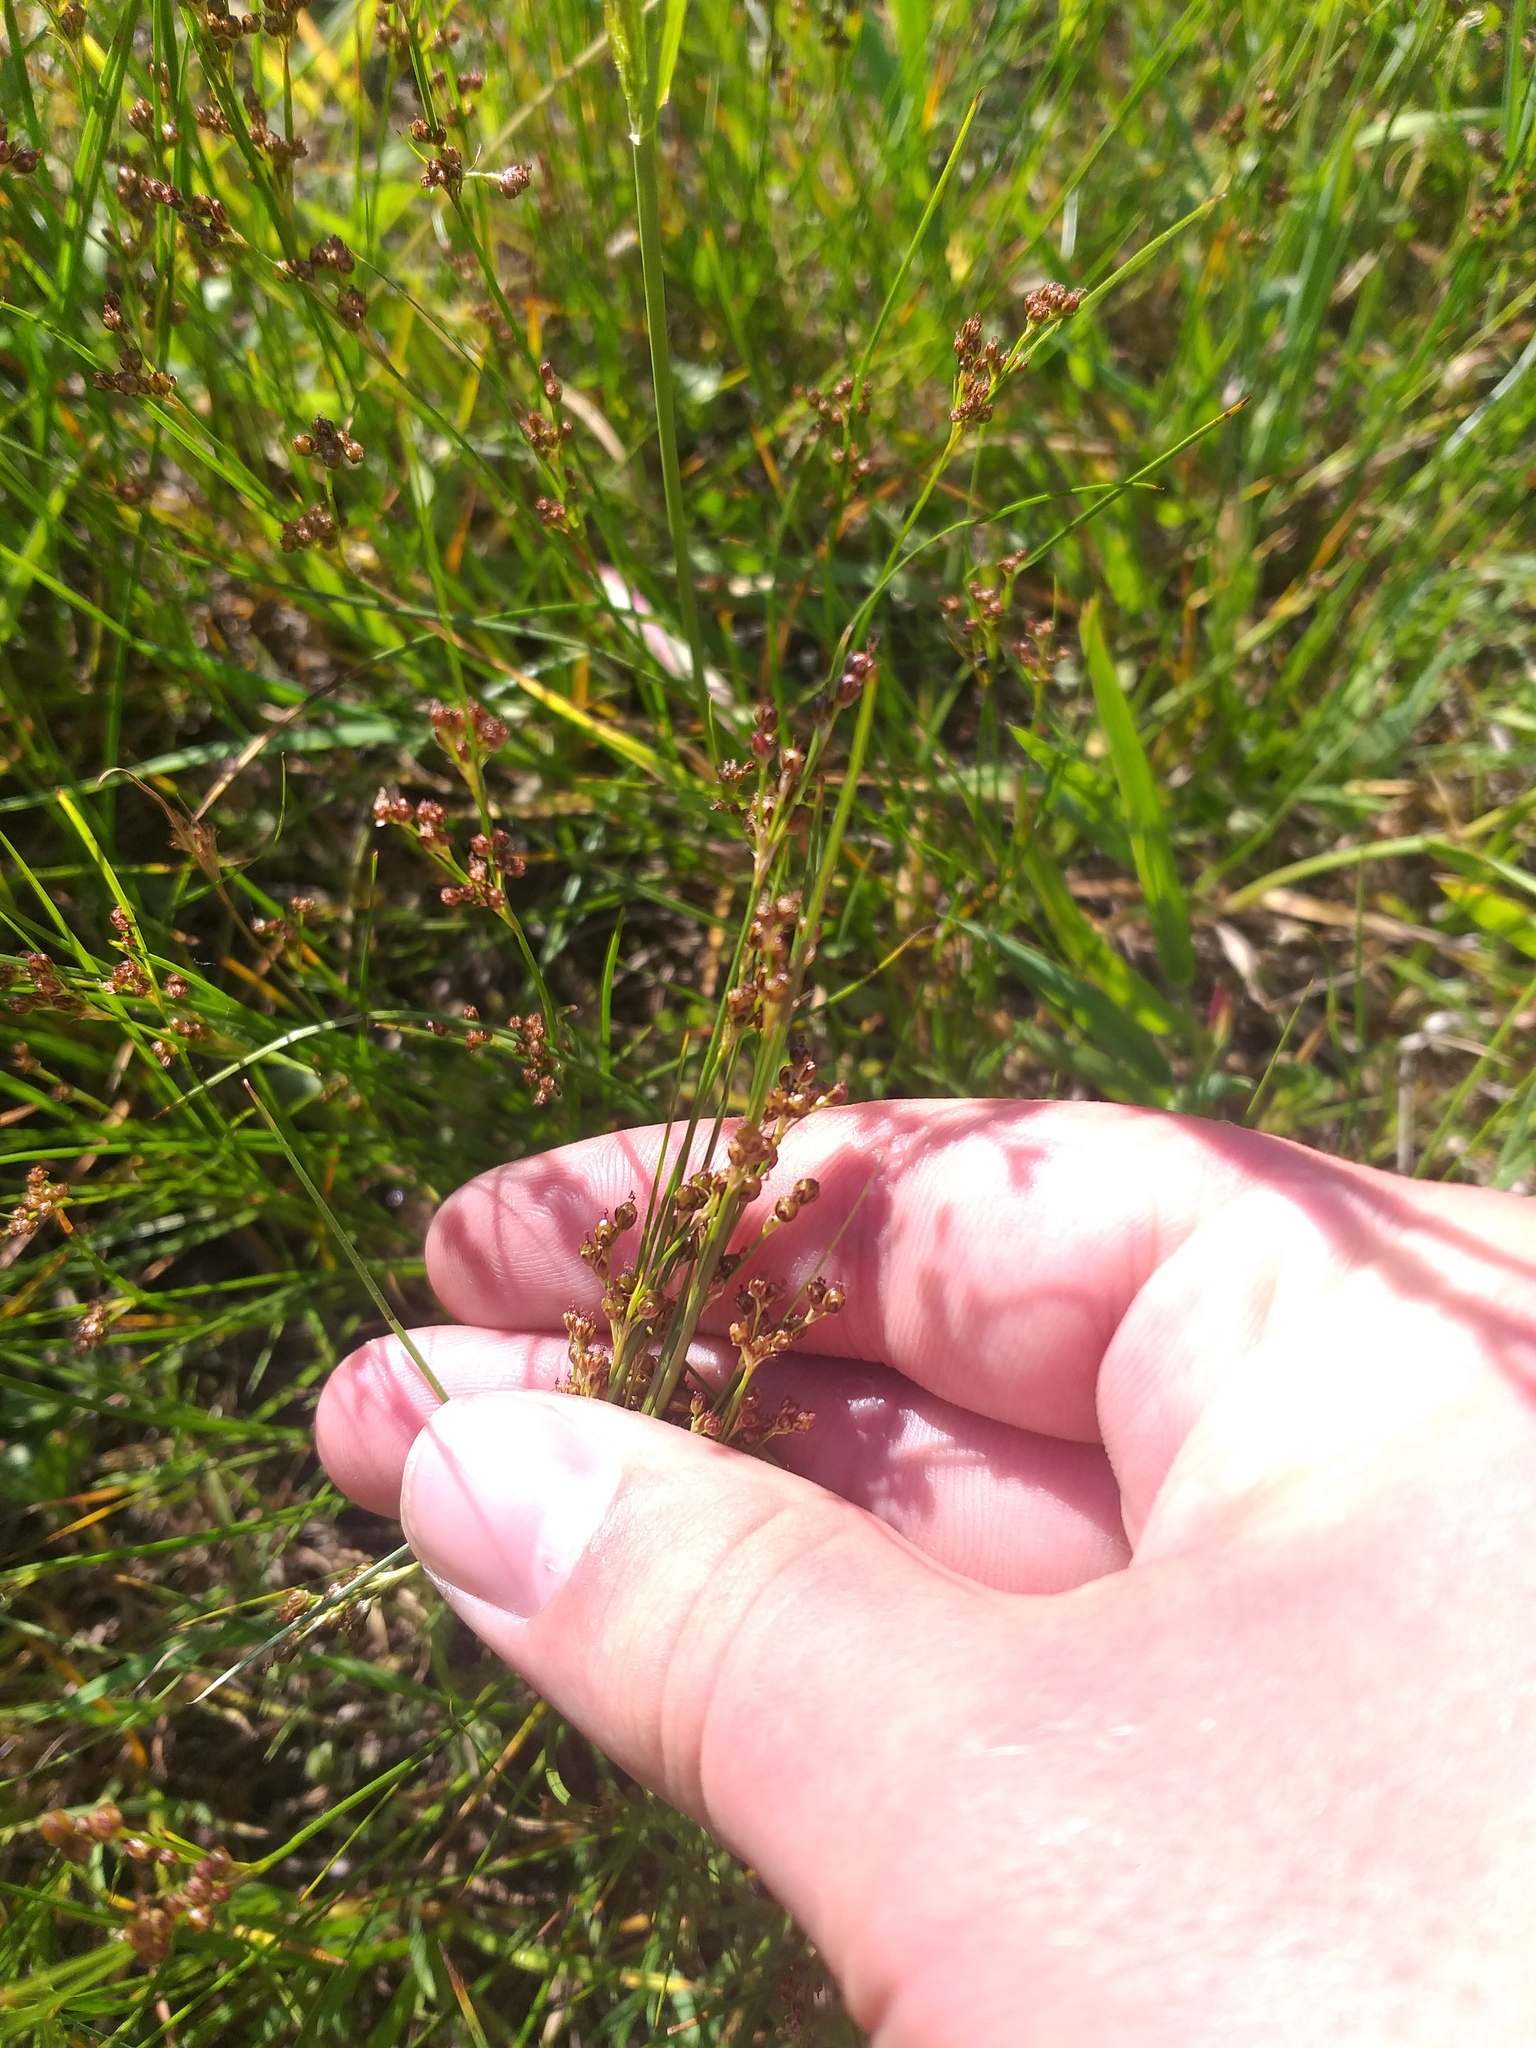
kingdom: Plantae
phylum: Tracheophyta
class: Liliopsida
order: Poales
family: Juncaceae
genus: Juncus
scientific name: Juncus compressus
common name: Round-fruited rush
